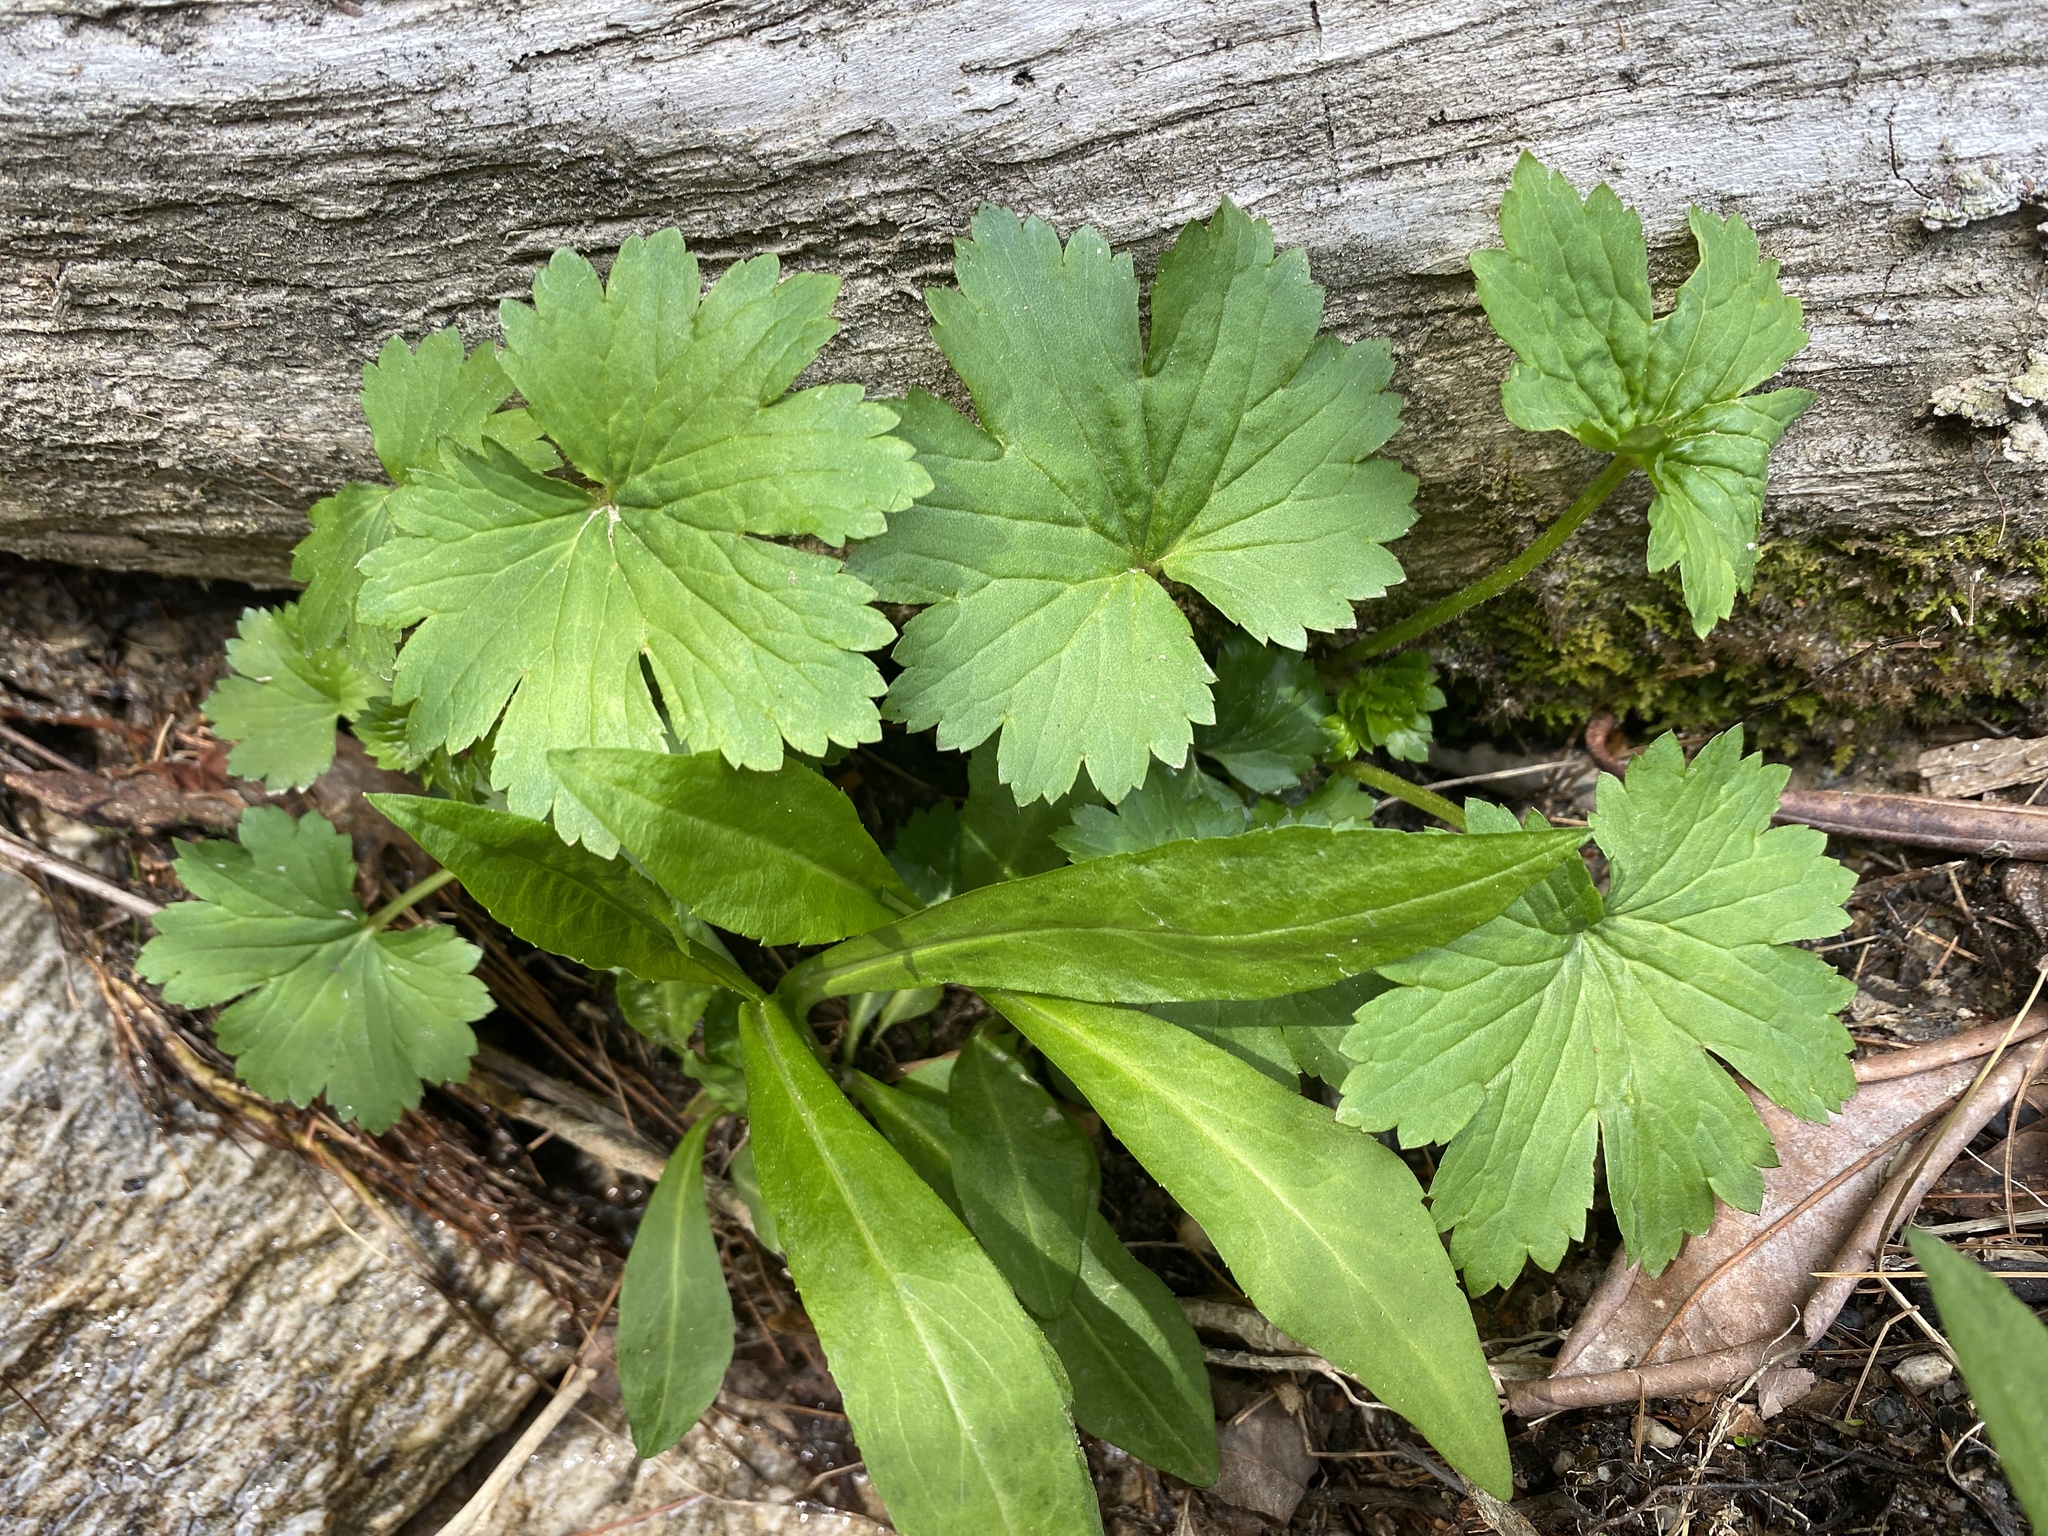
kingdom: Plantae
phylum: Tracheophyta
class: Magnoliopsida
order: Saxifragales
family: Saxifragaceae
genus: Boykinia
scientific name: Boykinia aconitifolia
